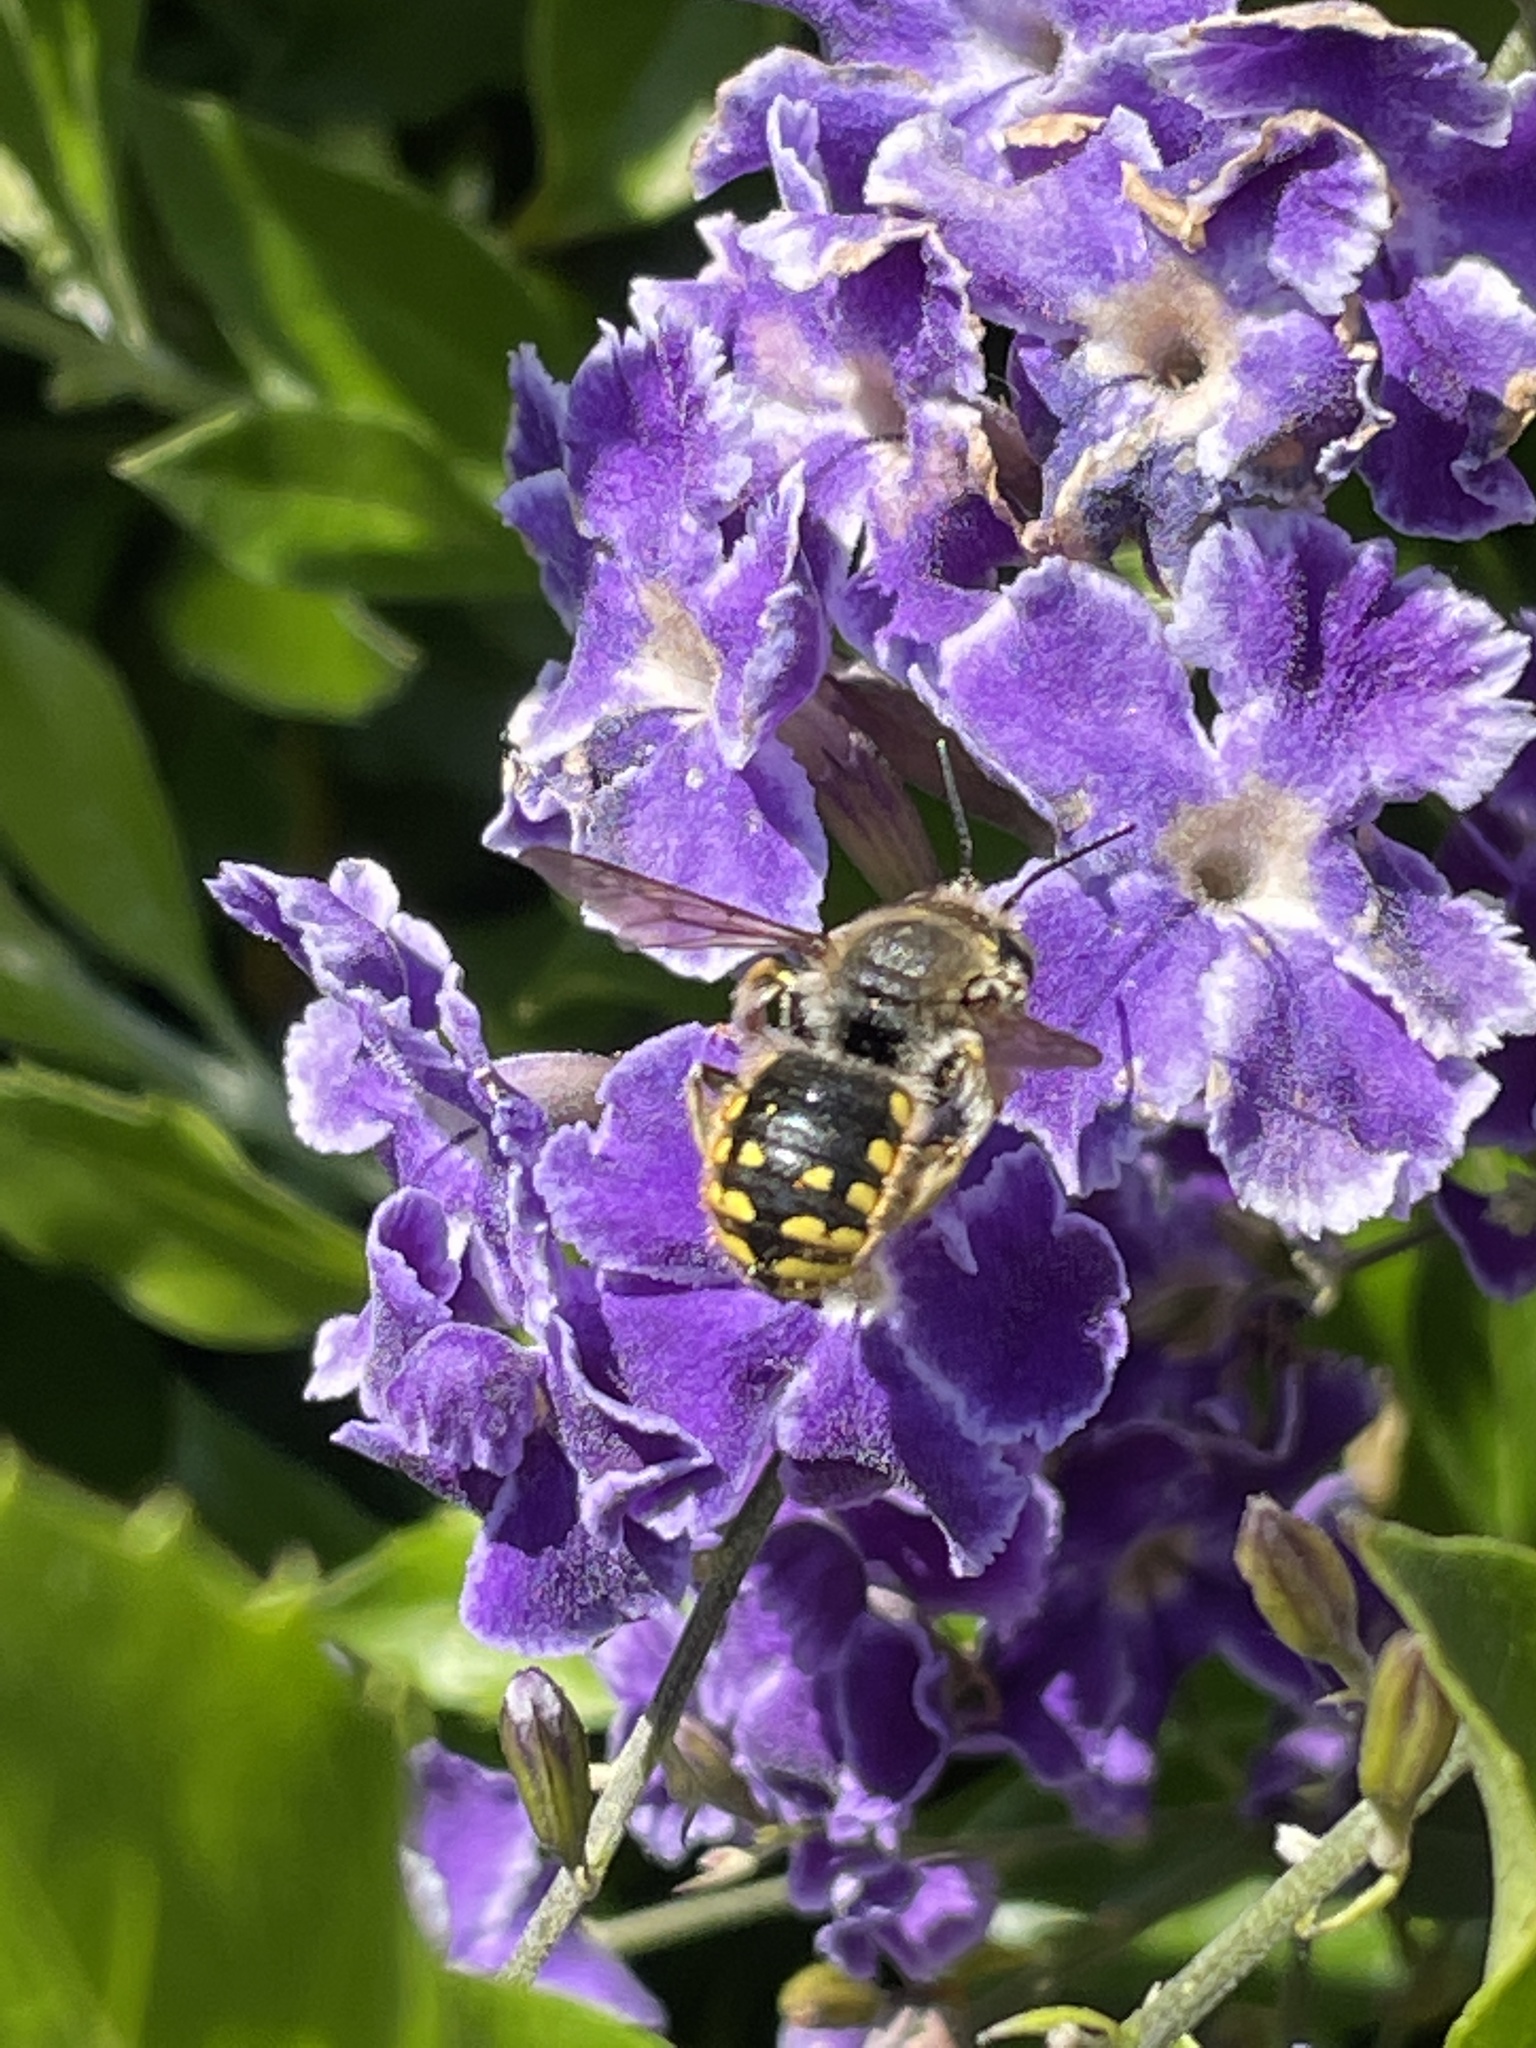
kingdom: Animalia
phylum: Arthropoda
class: Insecta
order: Hymenoptera
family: Megachilidae
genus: Anthidium
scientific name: Anthidium manicatum
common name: Wool carder bee
